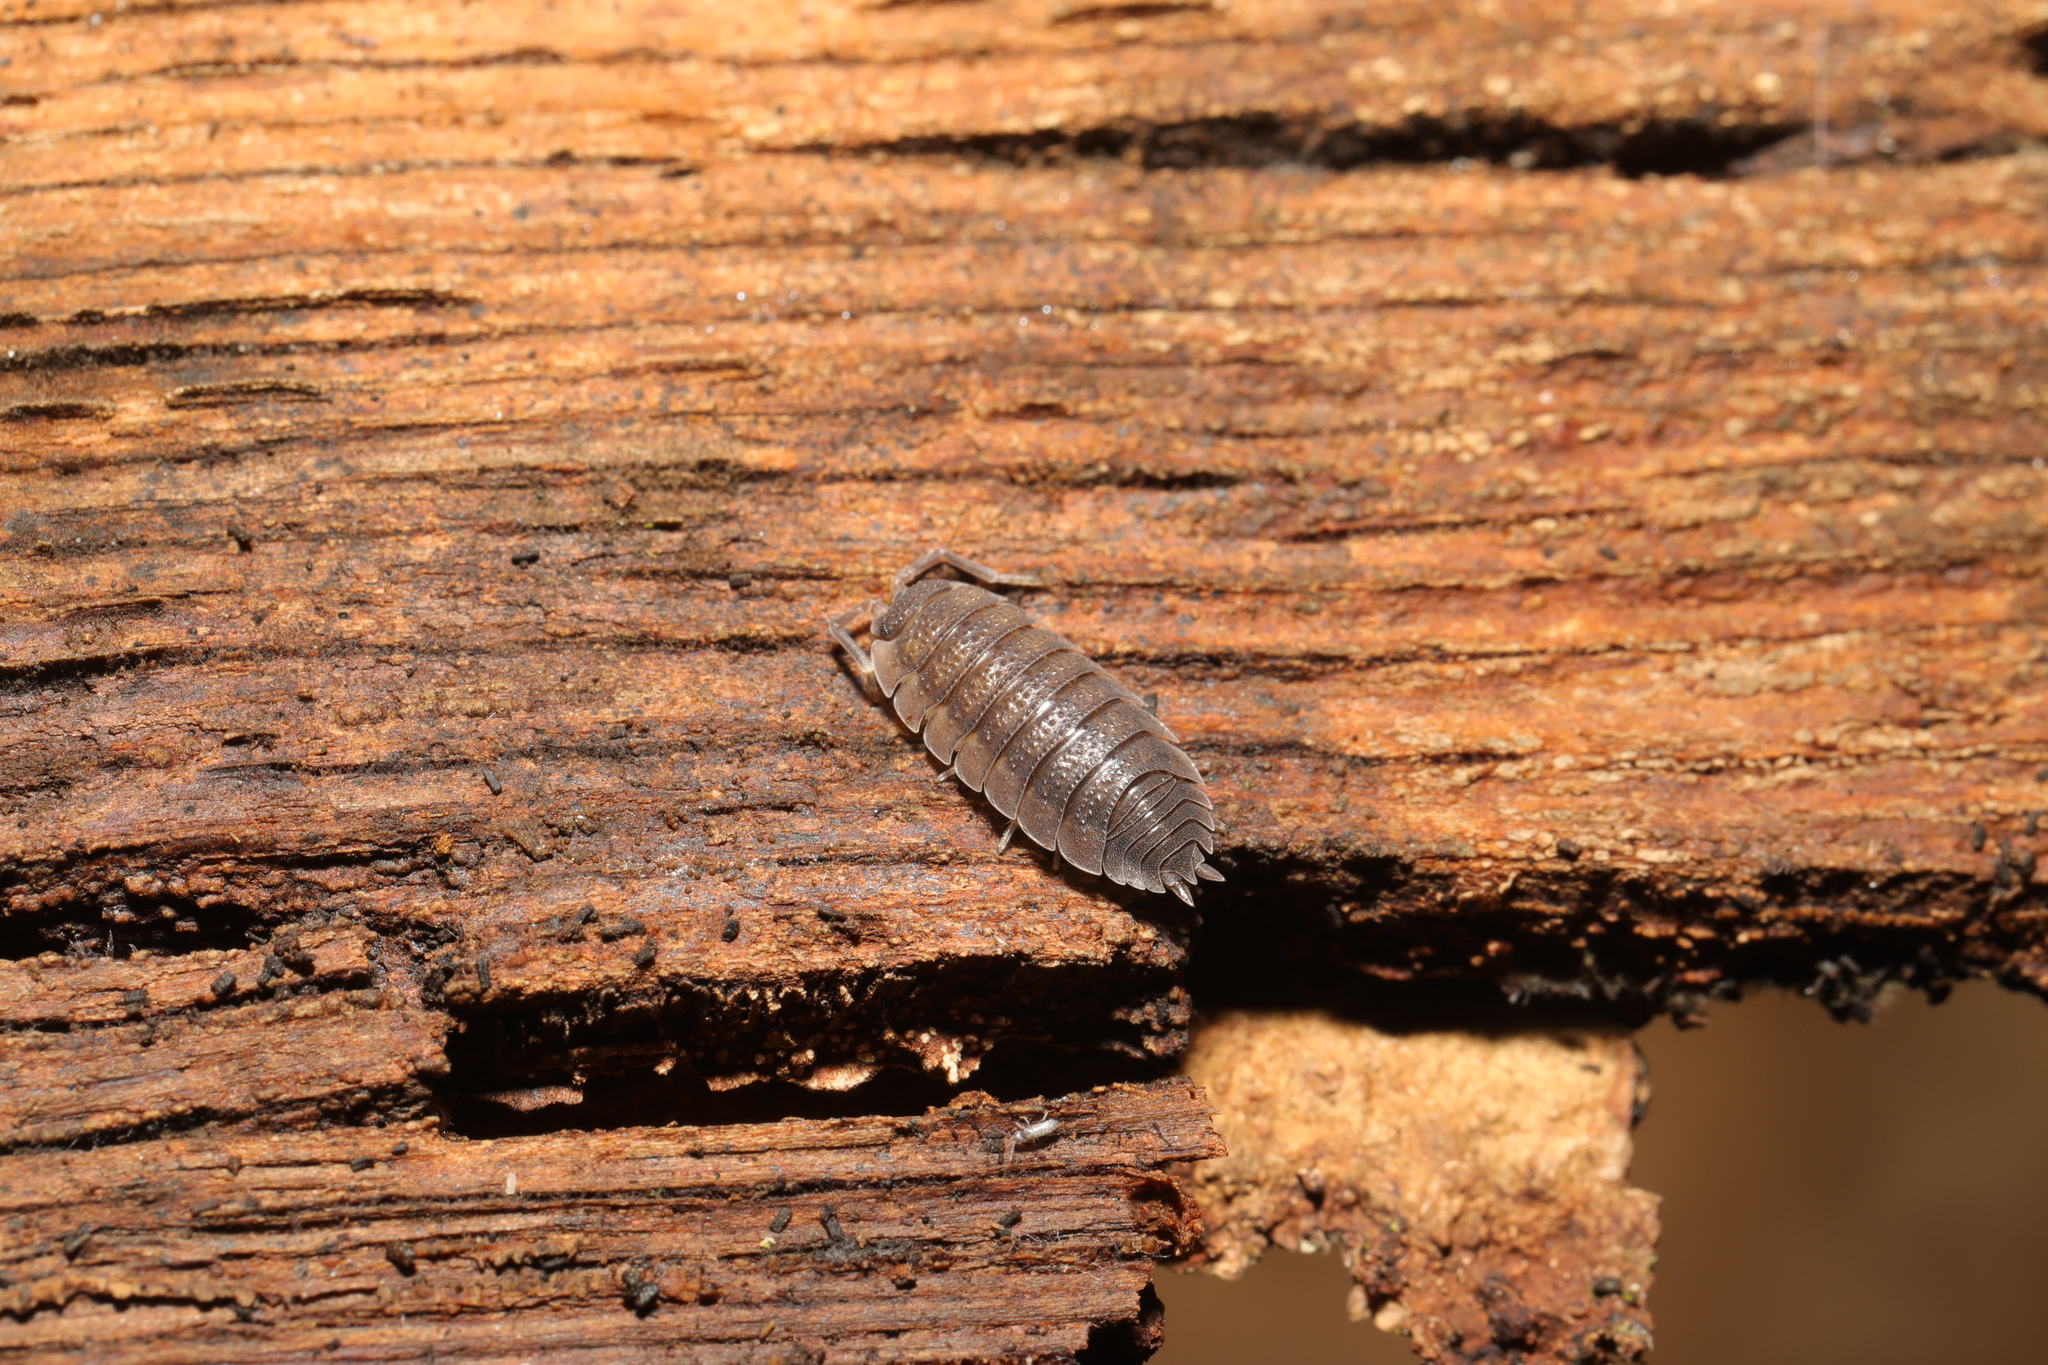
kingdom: Animalia
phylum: Arthropoda
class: Malacostraca
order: Isopoda
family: Porcellionidae
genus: Porcellio
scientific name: Porcellio scaber
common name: Common rough woodlouse
